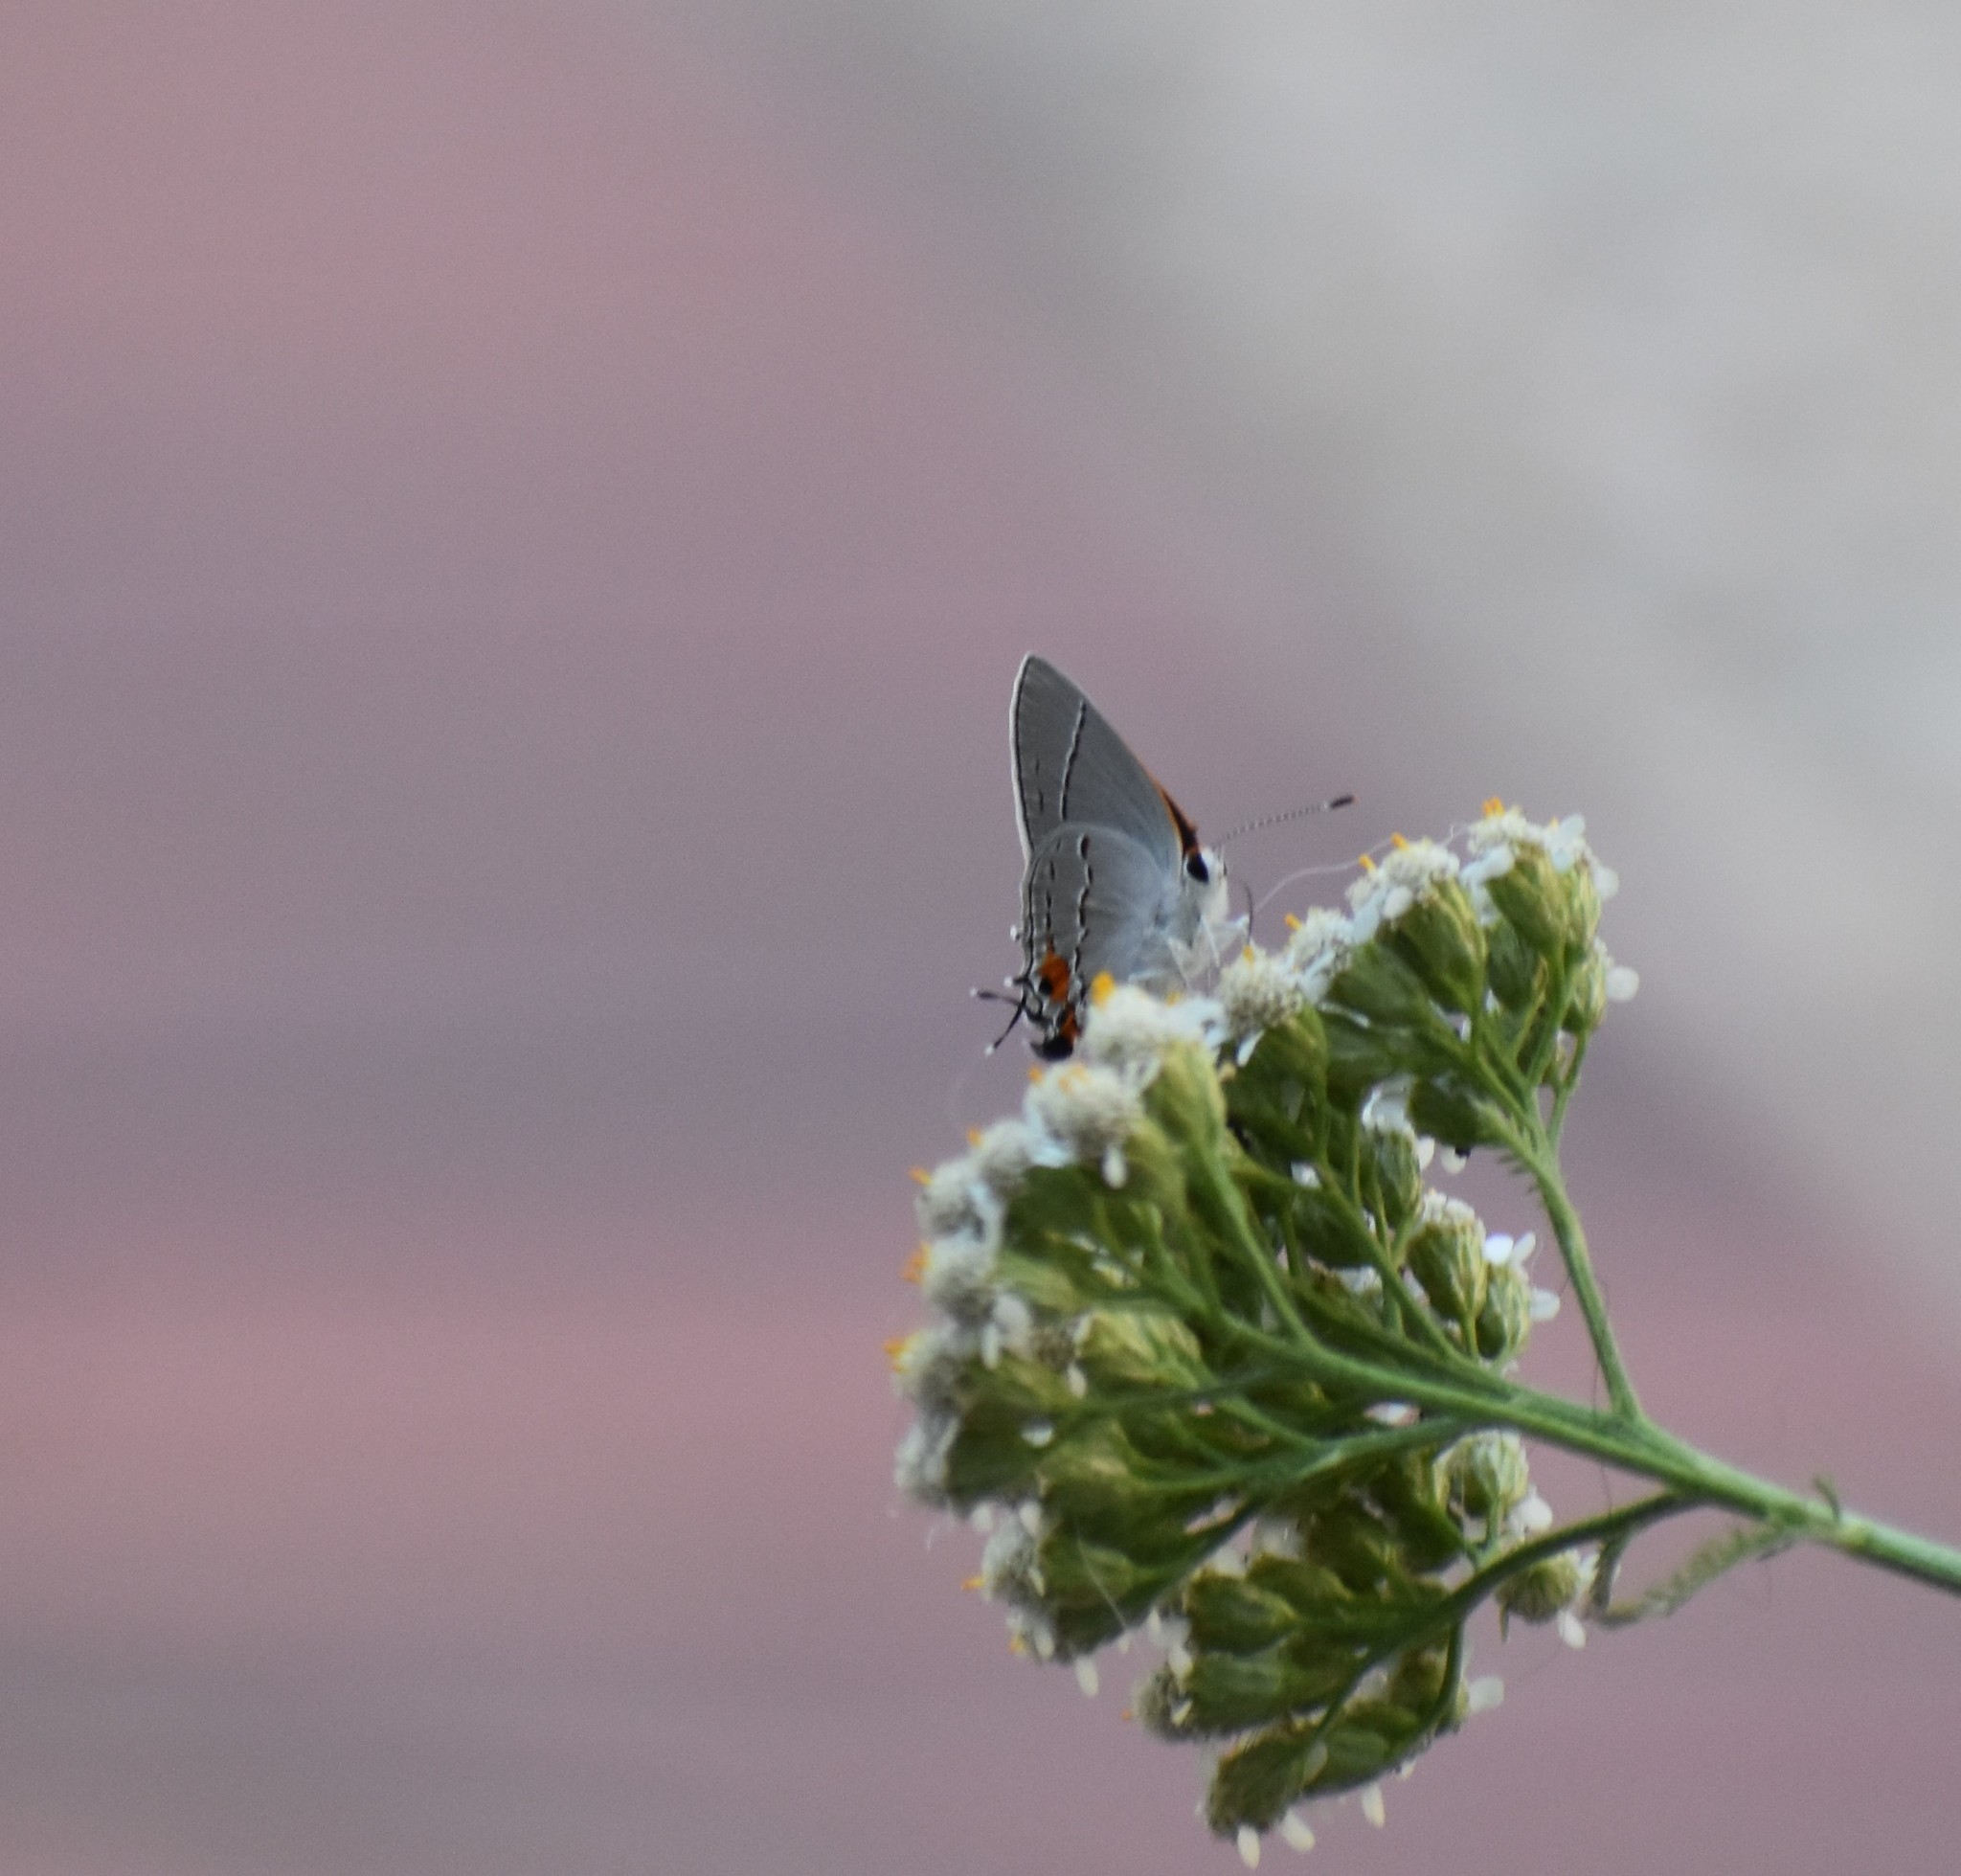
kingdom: Animalia
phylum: Arthropoda
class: Insecta
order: Lepidoptera
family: Lycaenidae
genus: Strymon
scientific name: Strymon melinus
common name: Gray hairstreak
